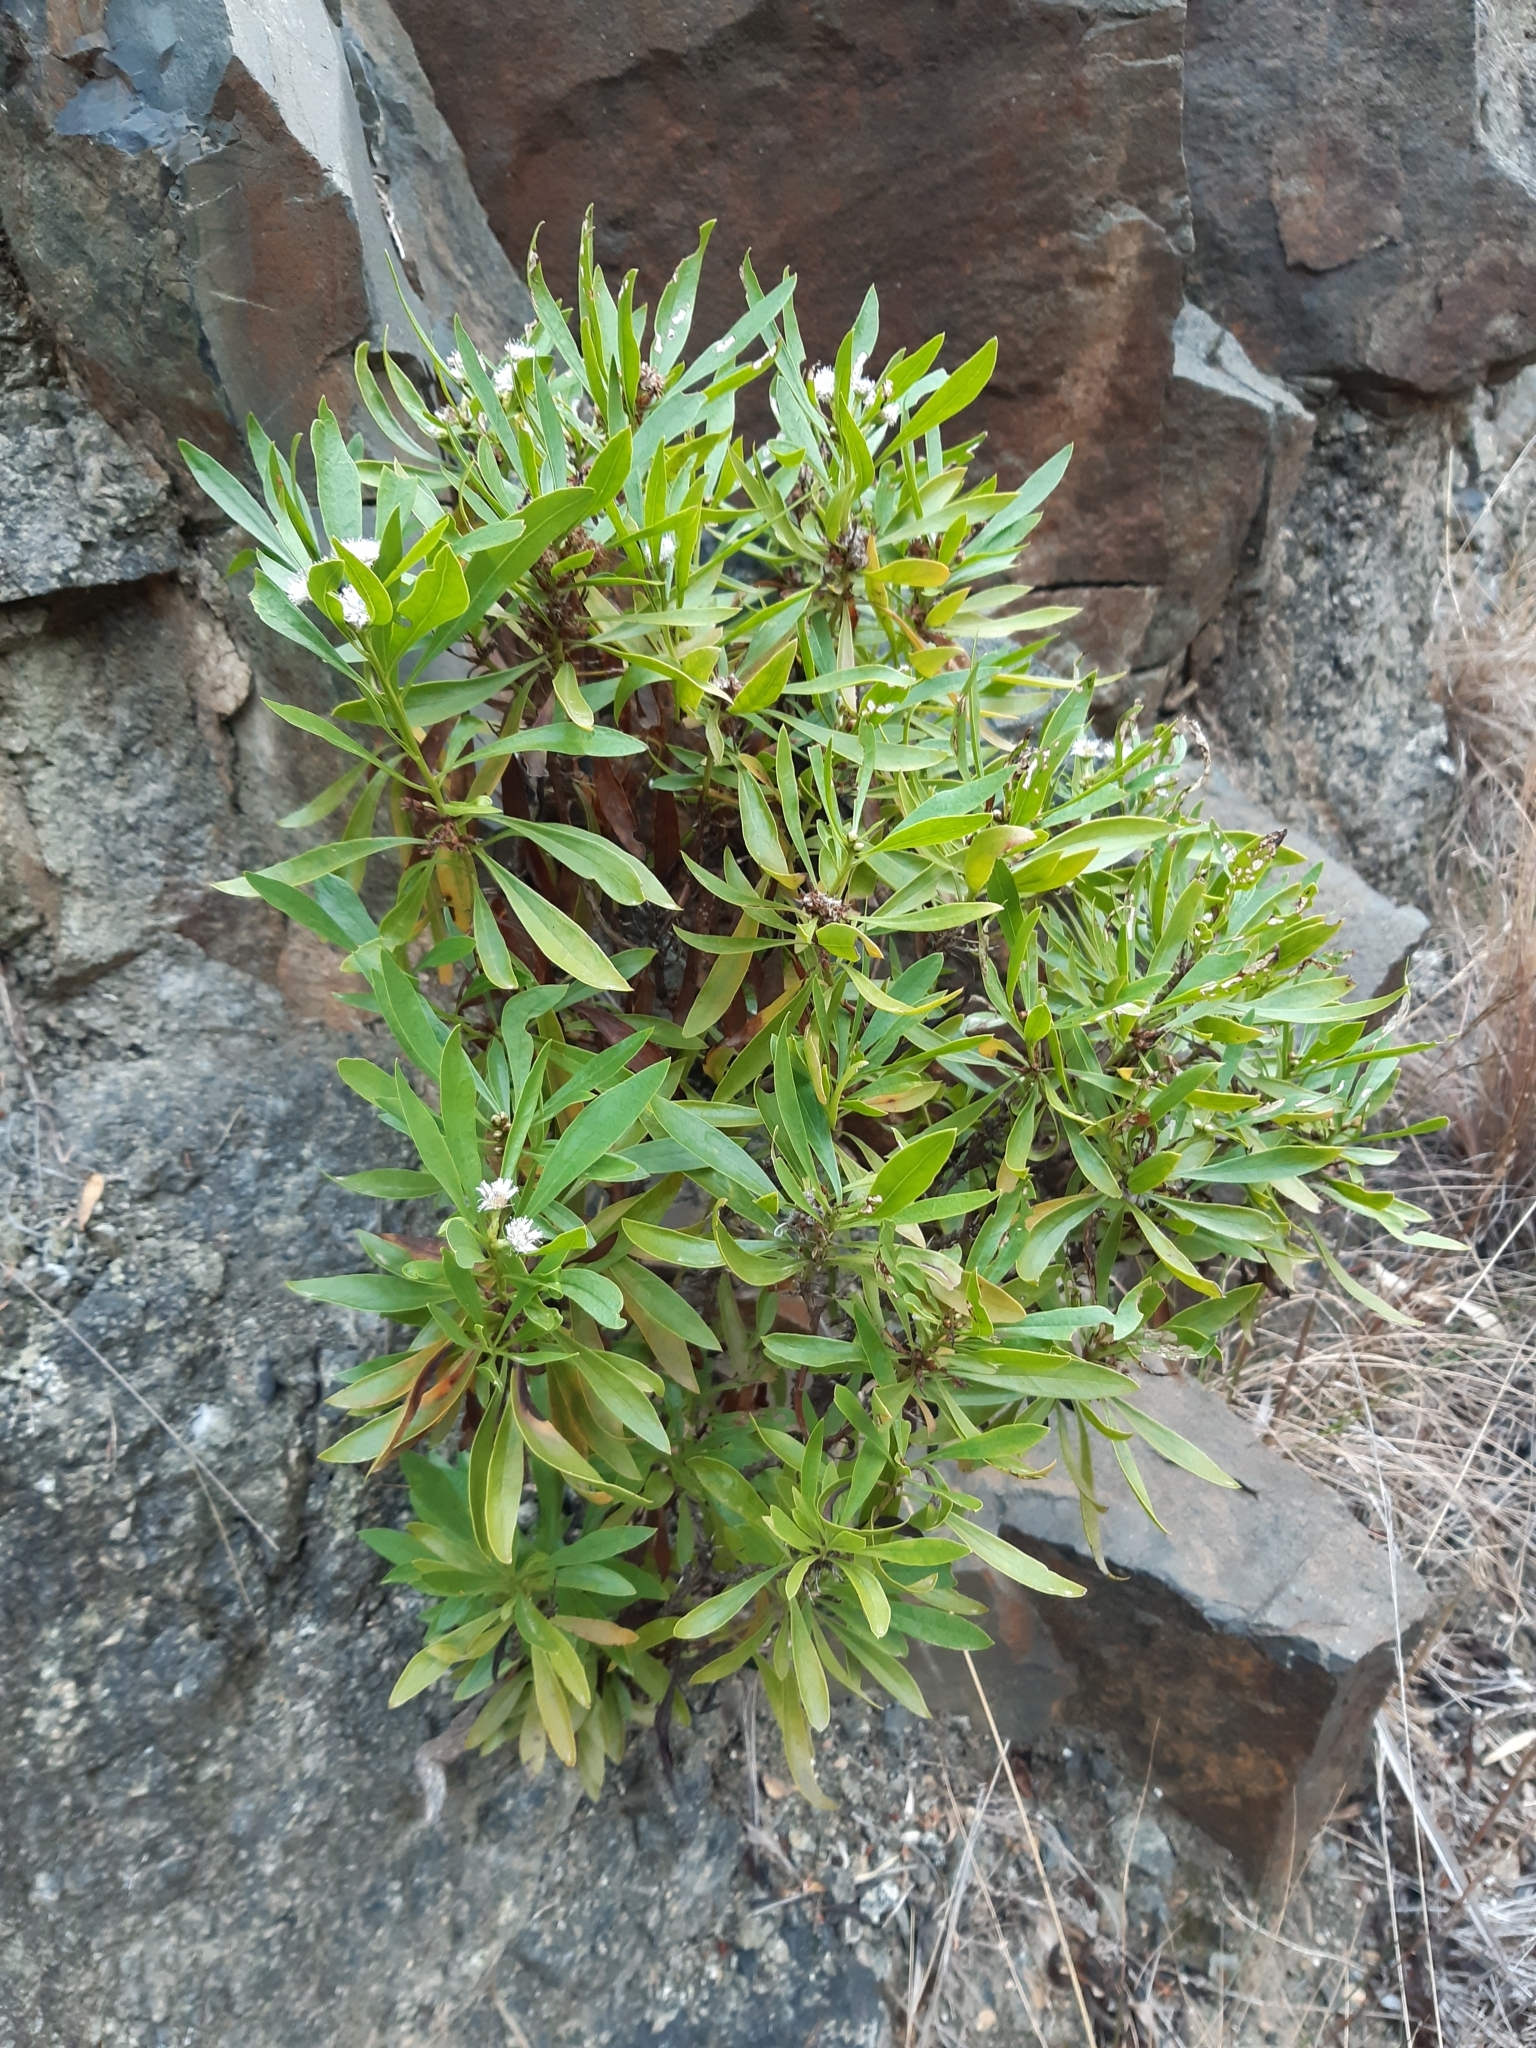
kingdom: Plantae
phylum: Tracheophyta
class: Magnoliopsida
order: Lamiales
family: Plantaginaceae
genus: Globularia
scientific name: Globularia salicina
